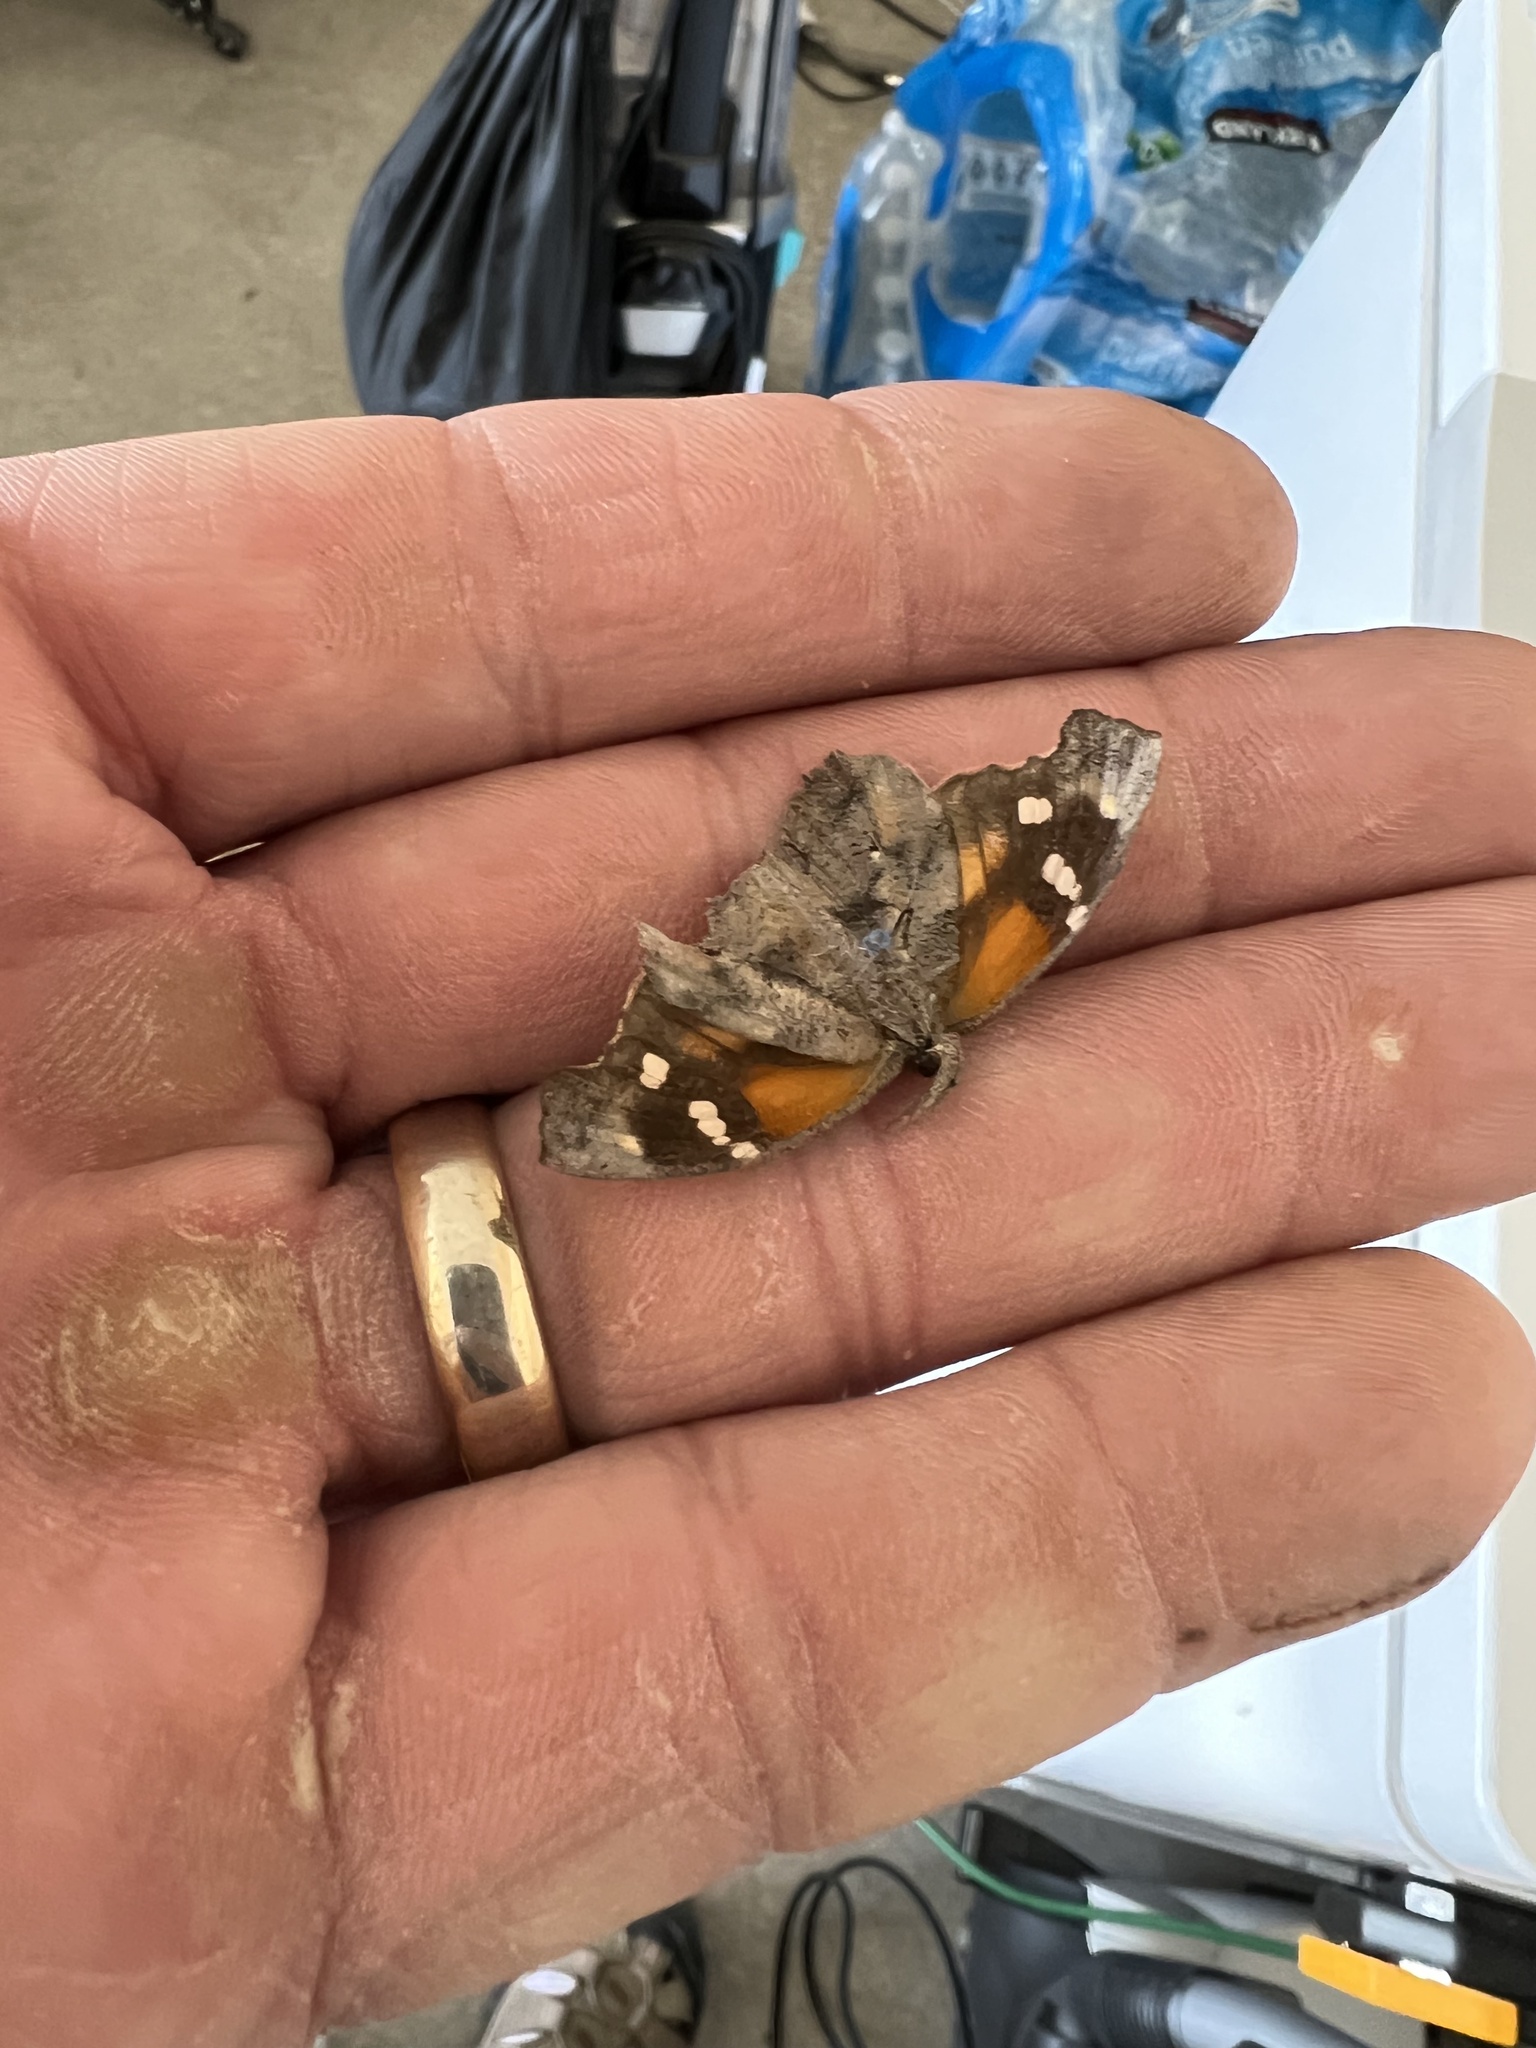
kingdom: Animalia
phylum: Arthropoda
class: Insecta
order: Lepidoptera
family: Nymphalidae
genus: Libytheana
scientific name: Libytheana carinenta
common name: American snout
